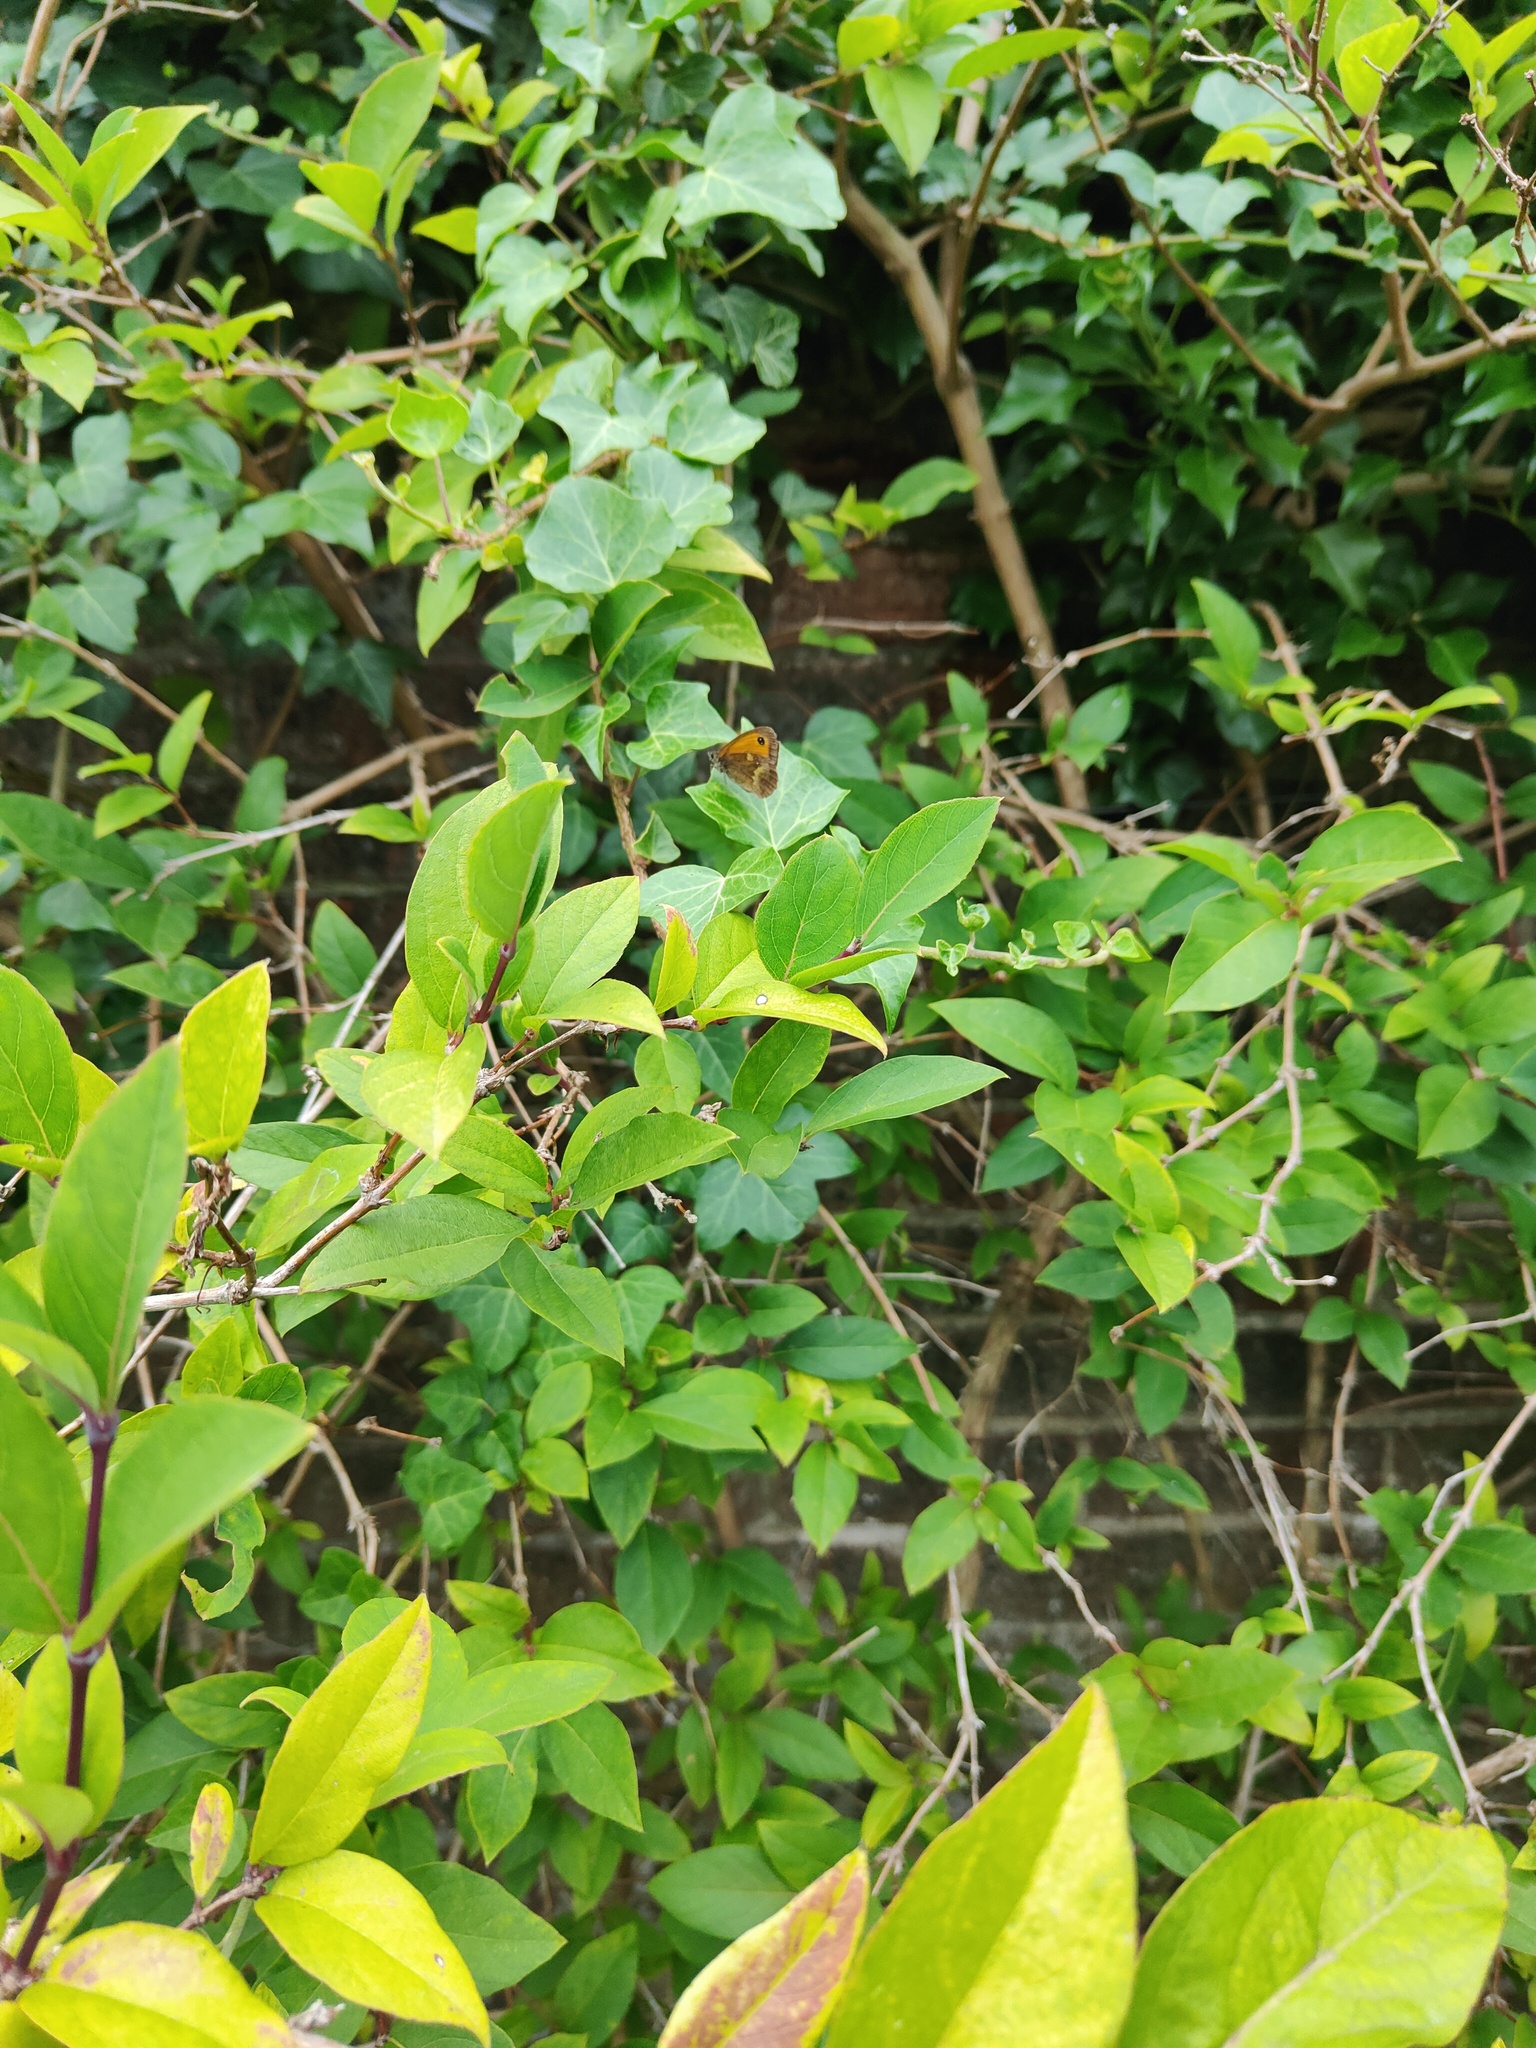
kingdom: Animalia
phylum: Arthropoda
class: Insecta
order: Lepidoptera
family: Nymphalidae
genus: Pyronia
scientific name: Pyronia tithonus
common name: Gatekeeper
